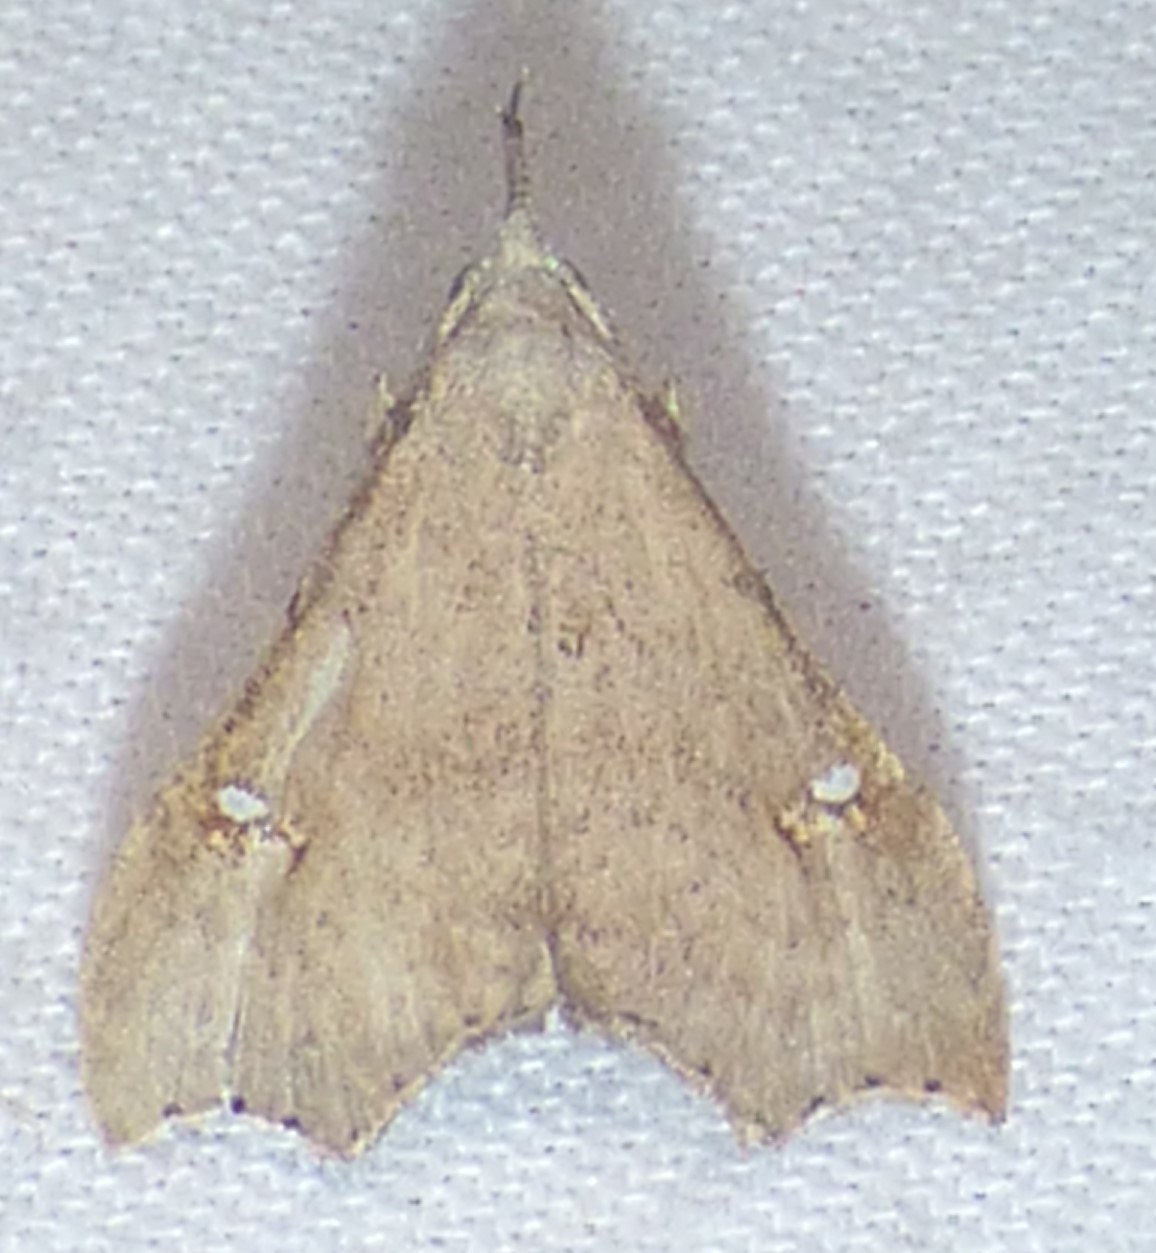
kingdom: Animalia
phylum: Arthropoda
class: Insecta
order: Lepidoptera
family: Erebidae
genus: Redectis
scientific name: Redectis vitrea
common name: White-spotted redectis
